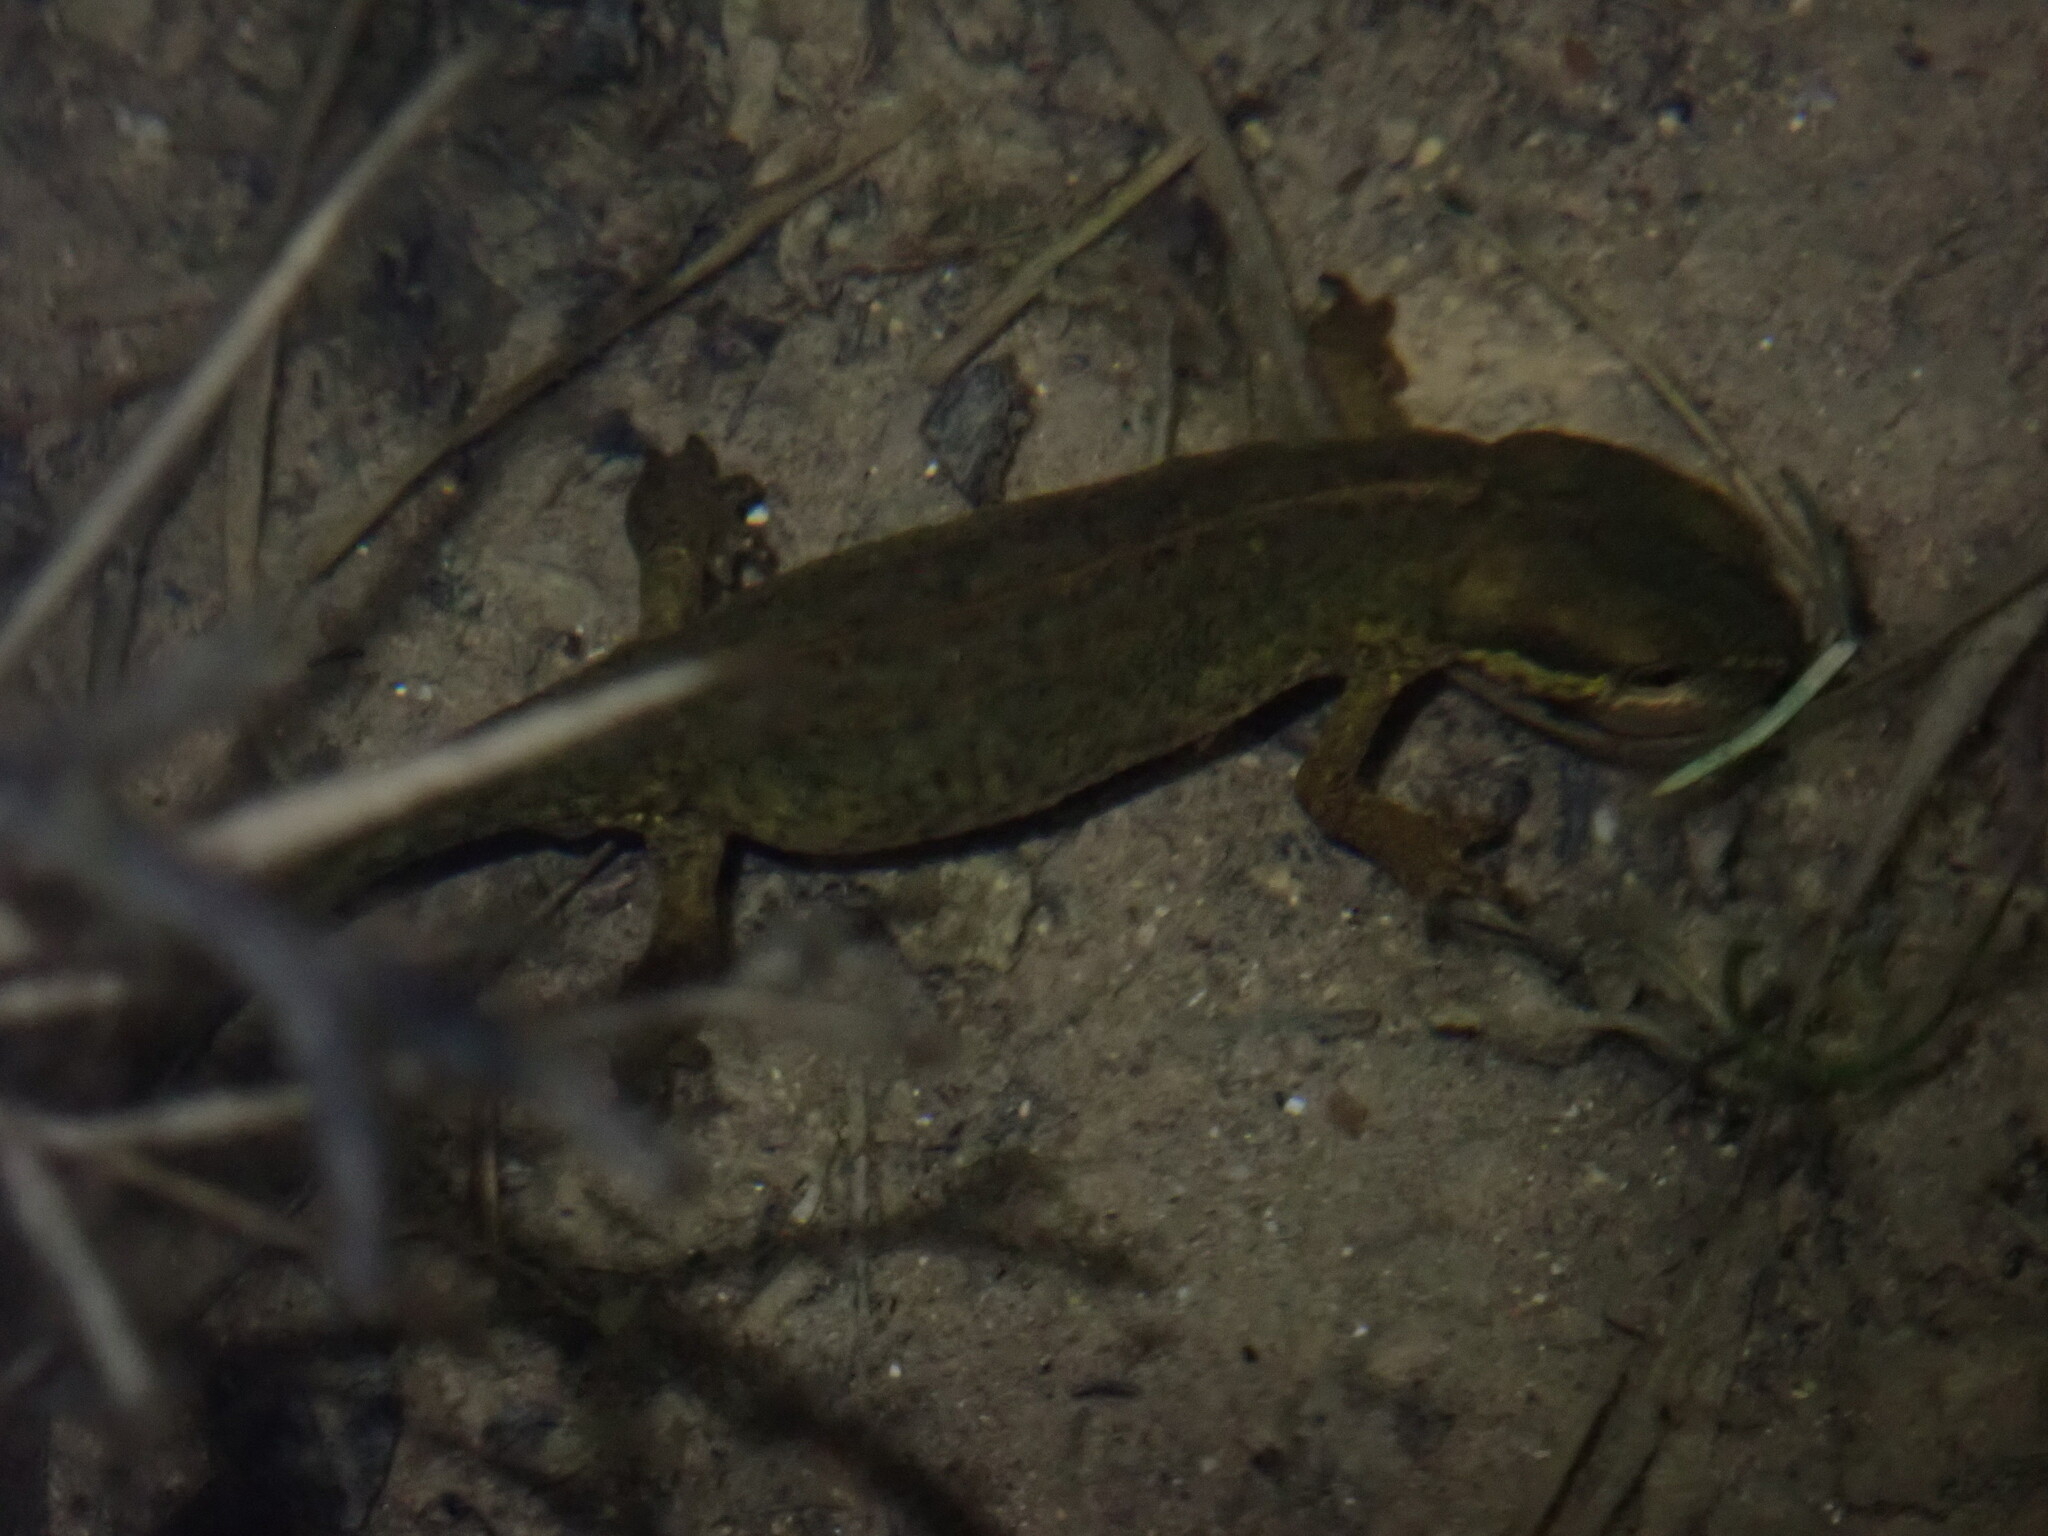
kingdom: Animalia
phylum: Chordata
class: Amphibia
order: Caudata
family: Salamandridae
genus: Lissotriton
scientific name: Lissotriton helveticus
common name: Palmate newt
